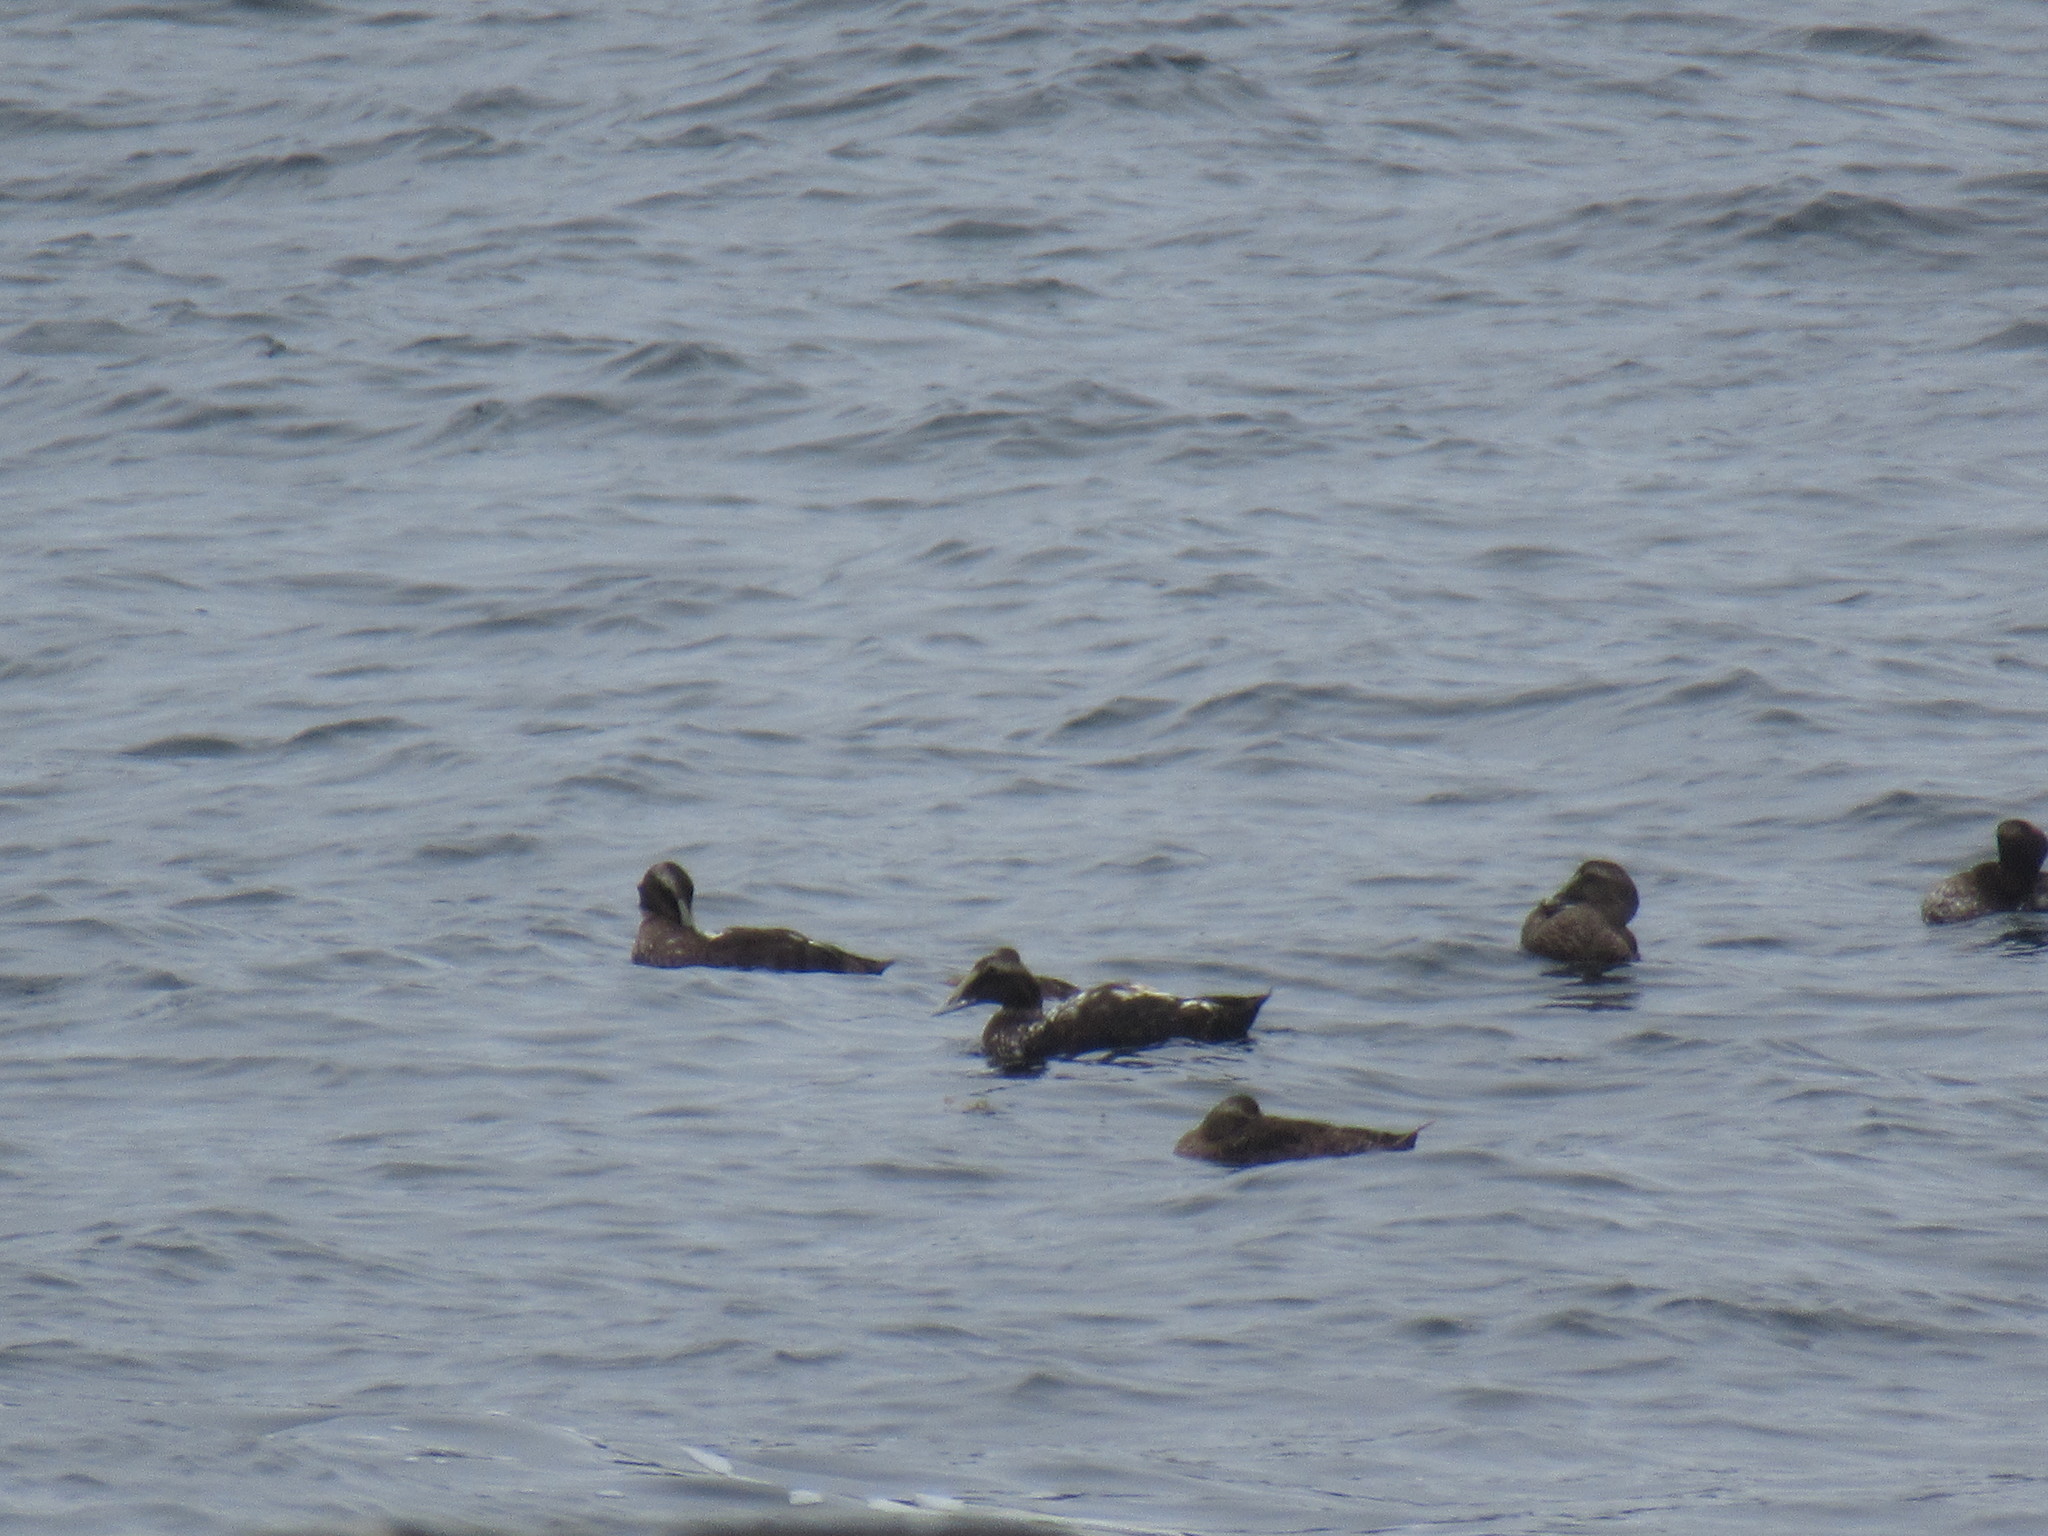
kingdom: Animalia
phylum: Chordata
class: Aves
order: Anseriformes
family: Anatidae
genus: Somateria
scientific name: Somateria mollissima
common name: Common eider
